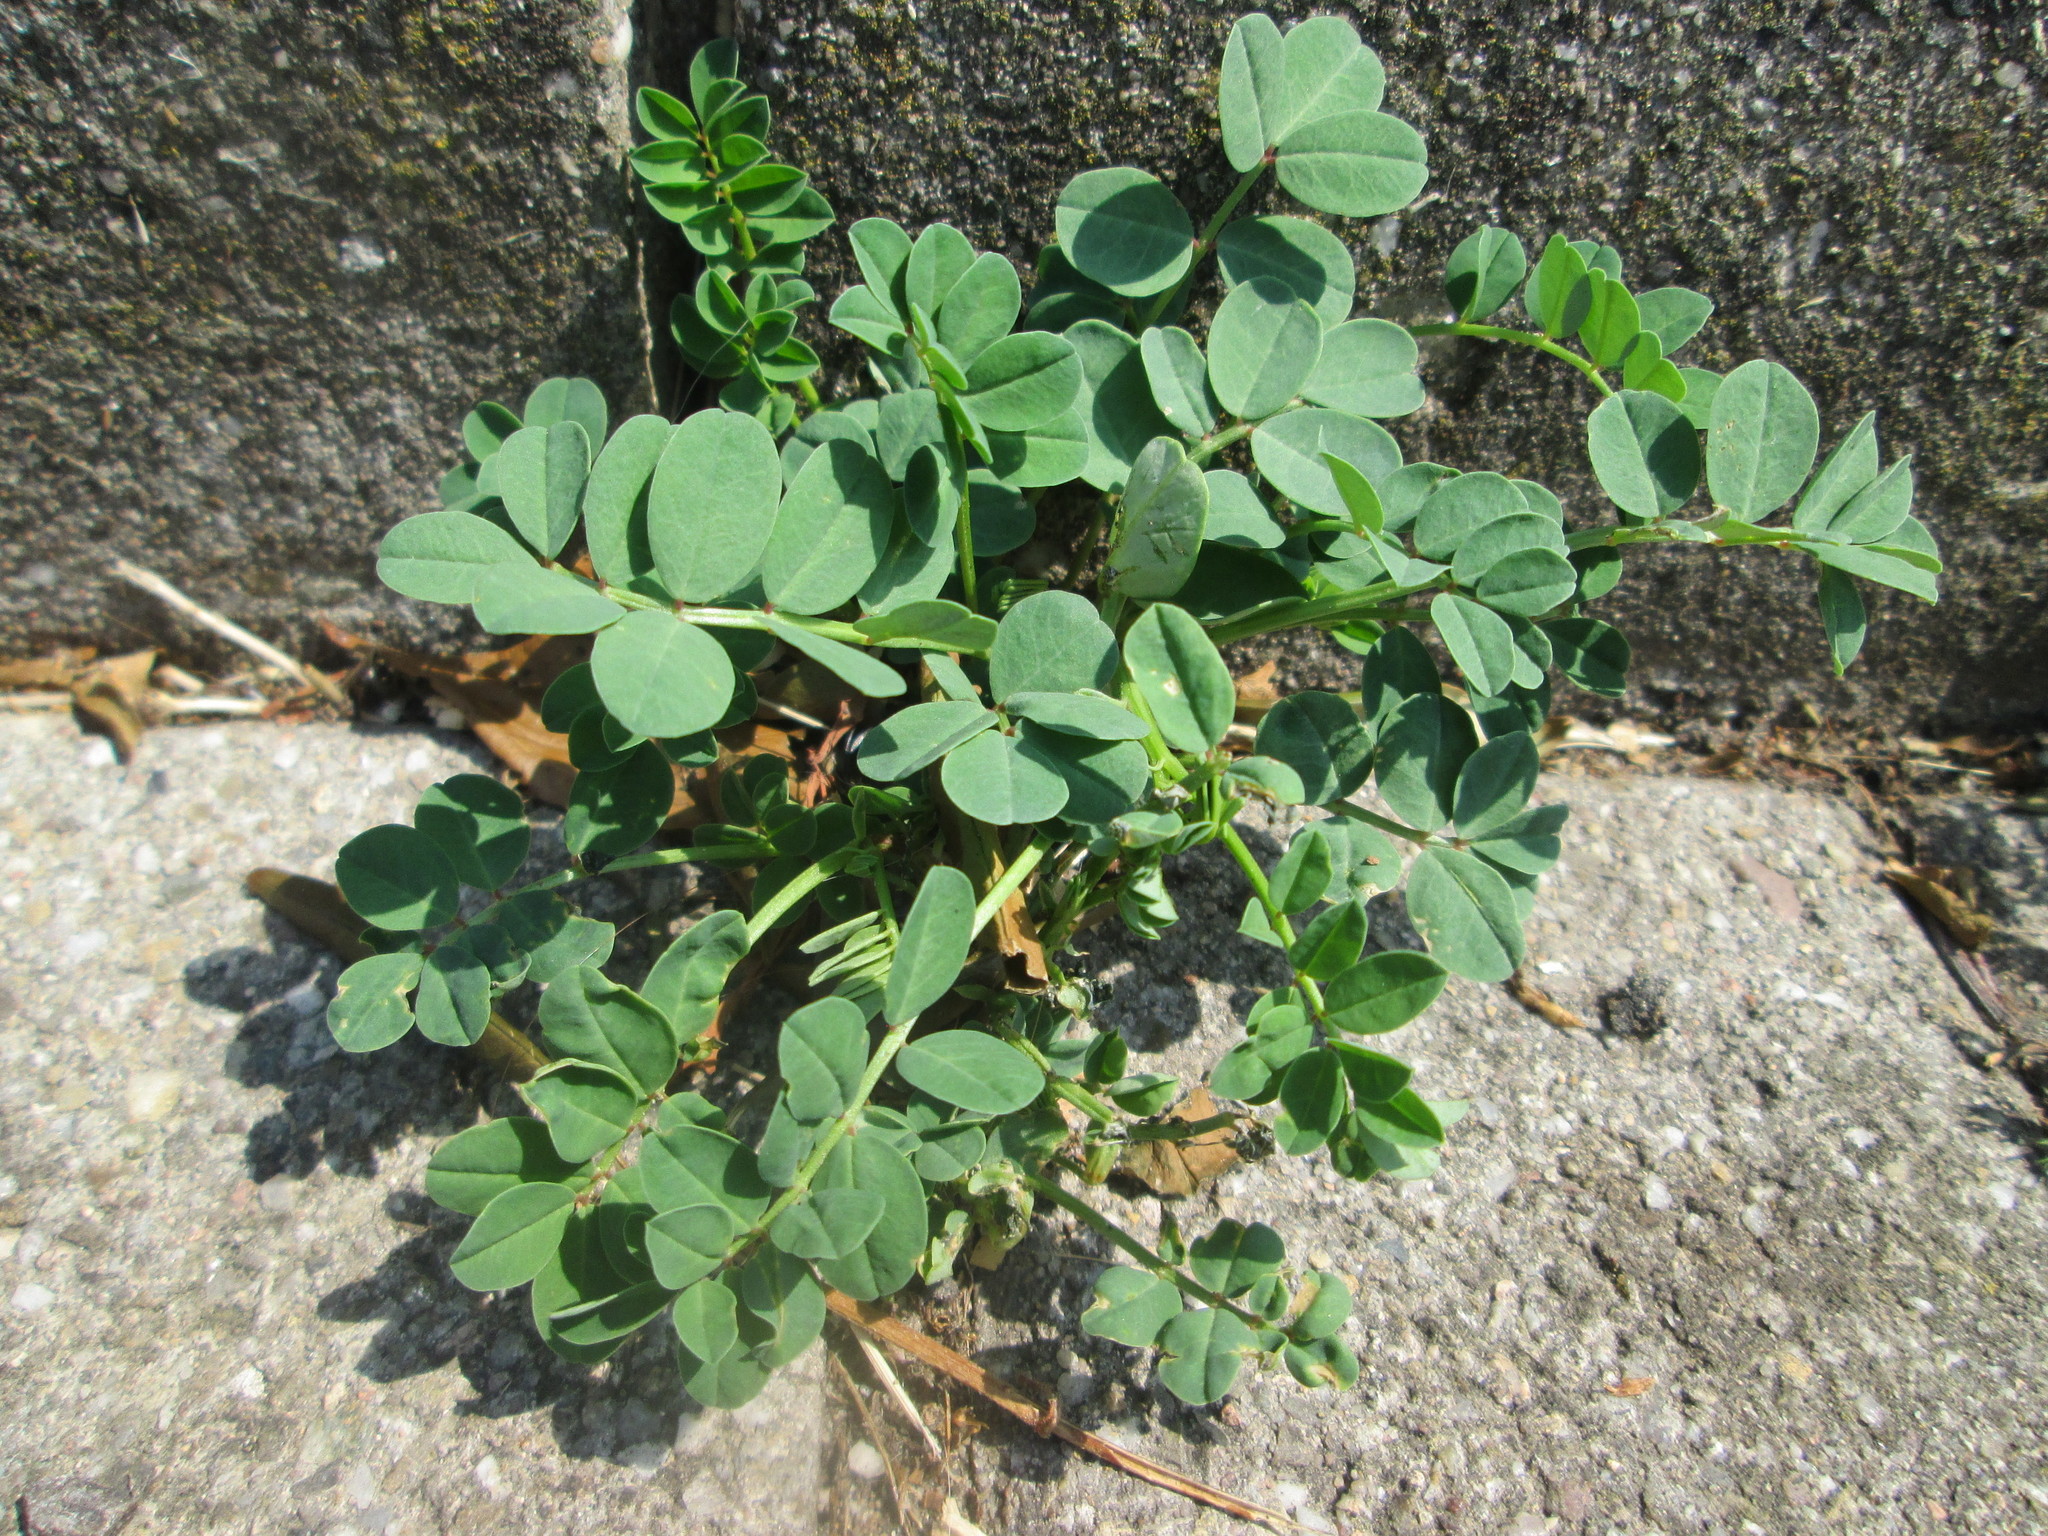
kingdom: Plantae
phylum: Tracheophyta
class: Magnoliopsida
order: Fabales
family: Fabaceae
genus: Astragalus
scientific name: Astragalus glycyphyllos
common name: Wild liquorice
